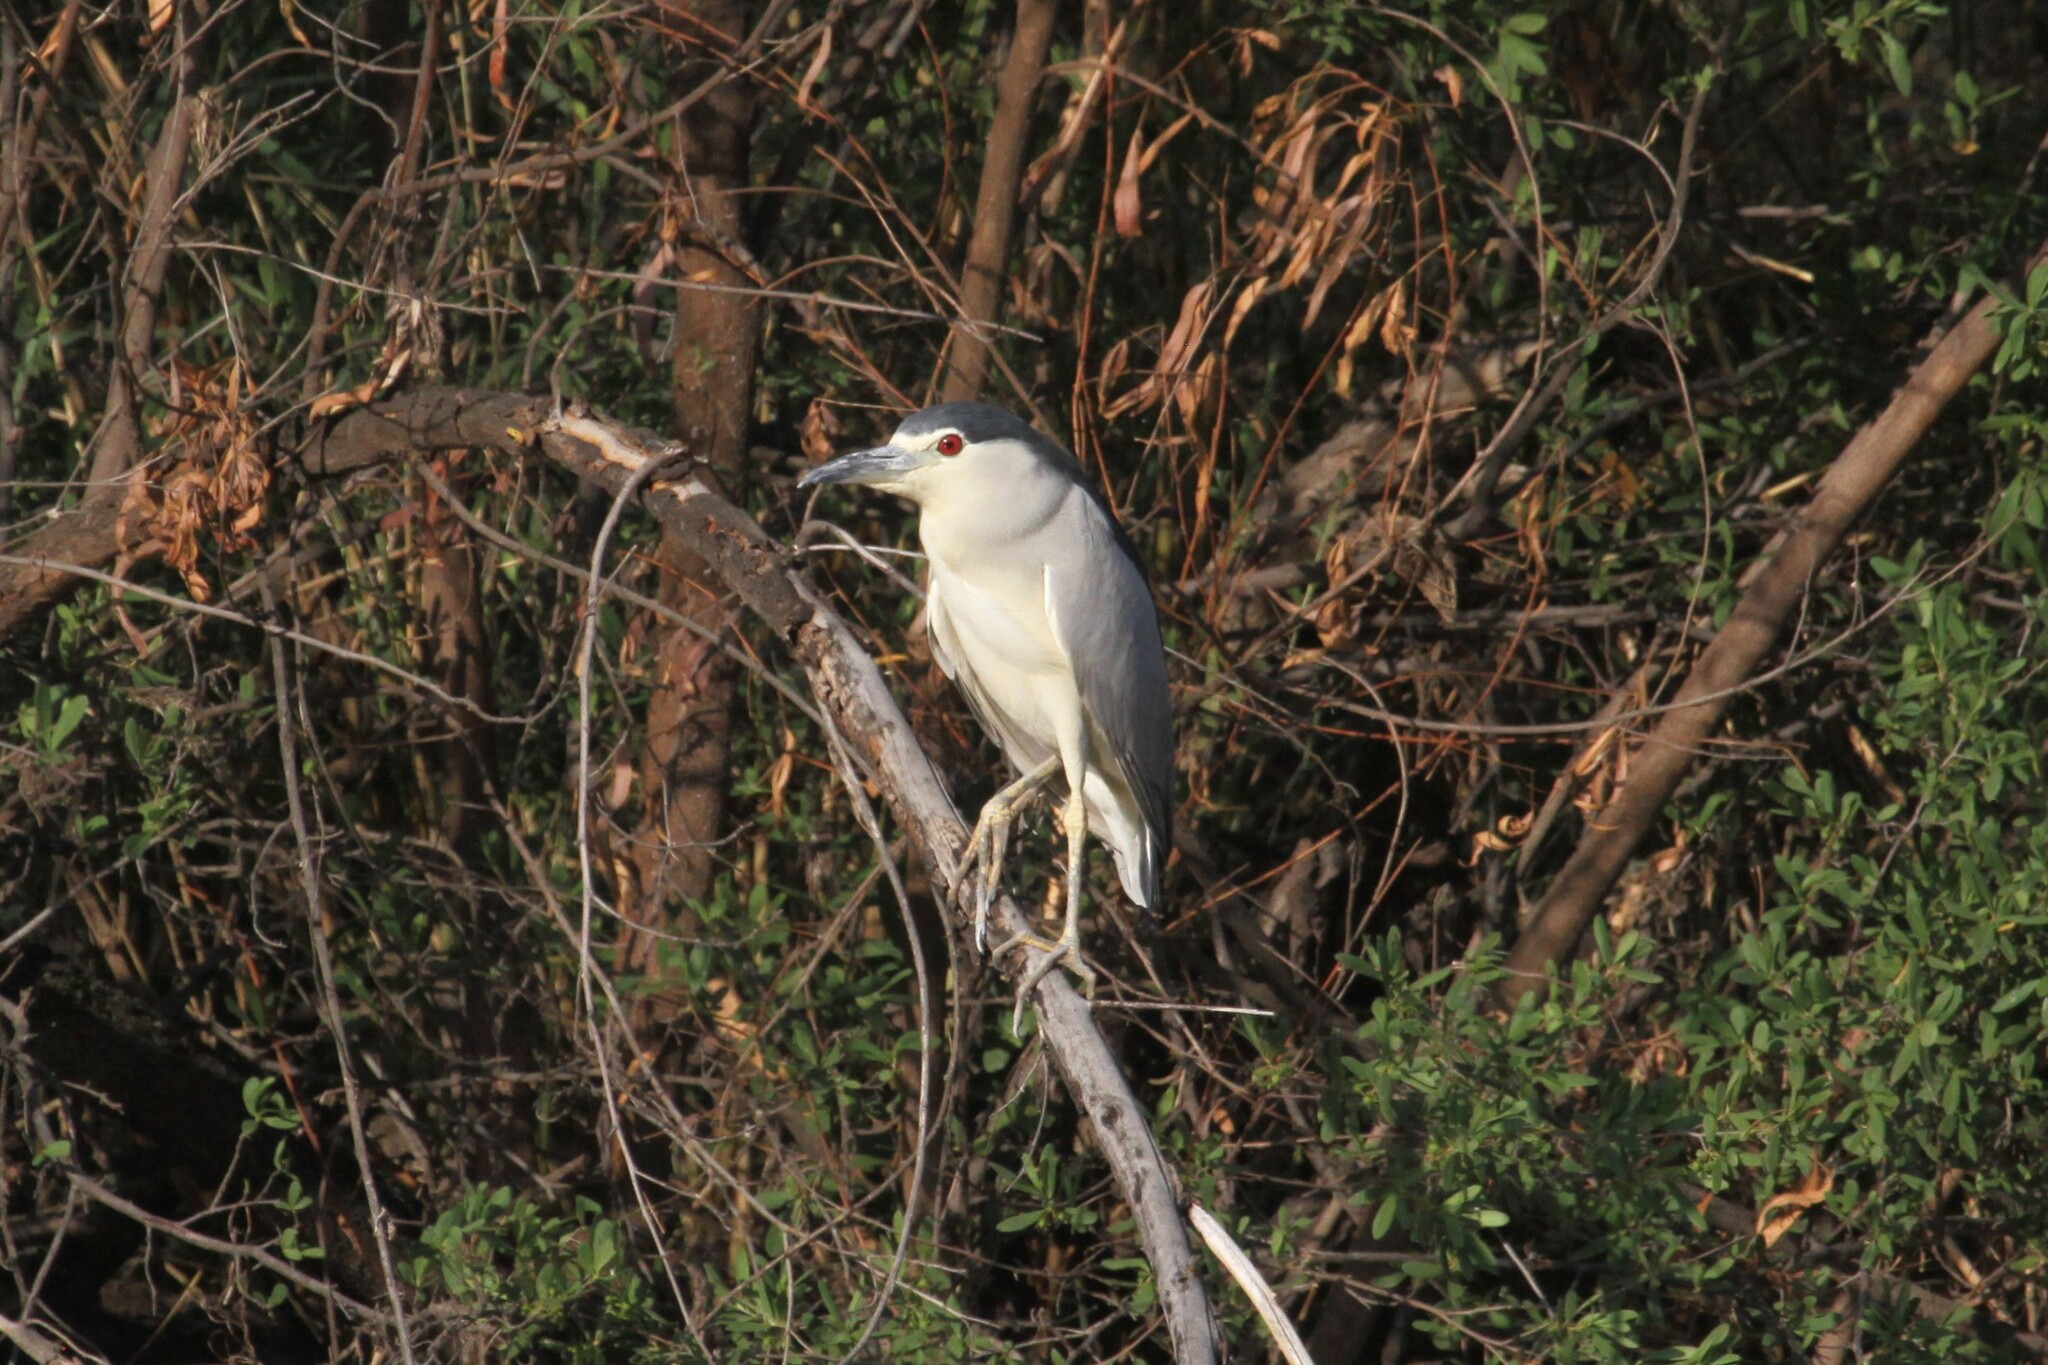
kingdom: Animalia
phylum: Chordata
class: Aves
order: Pelecaniformes
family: Ardeidae
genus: Nycticorax
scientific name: Nycticorax nycticorax
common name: Black-crowned night heron
